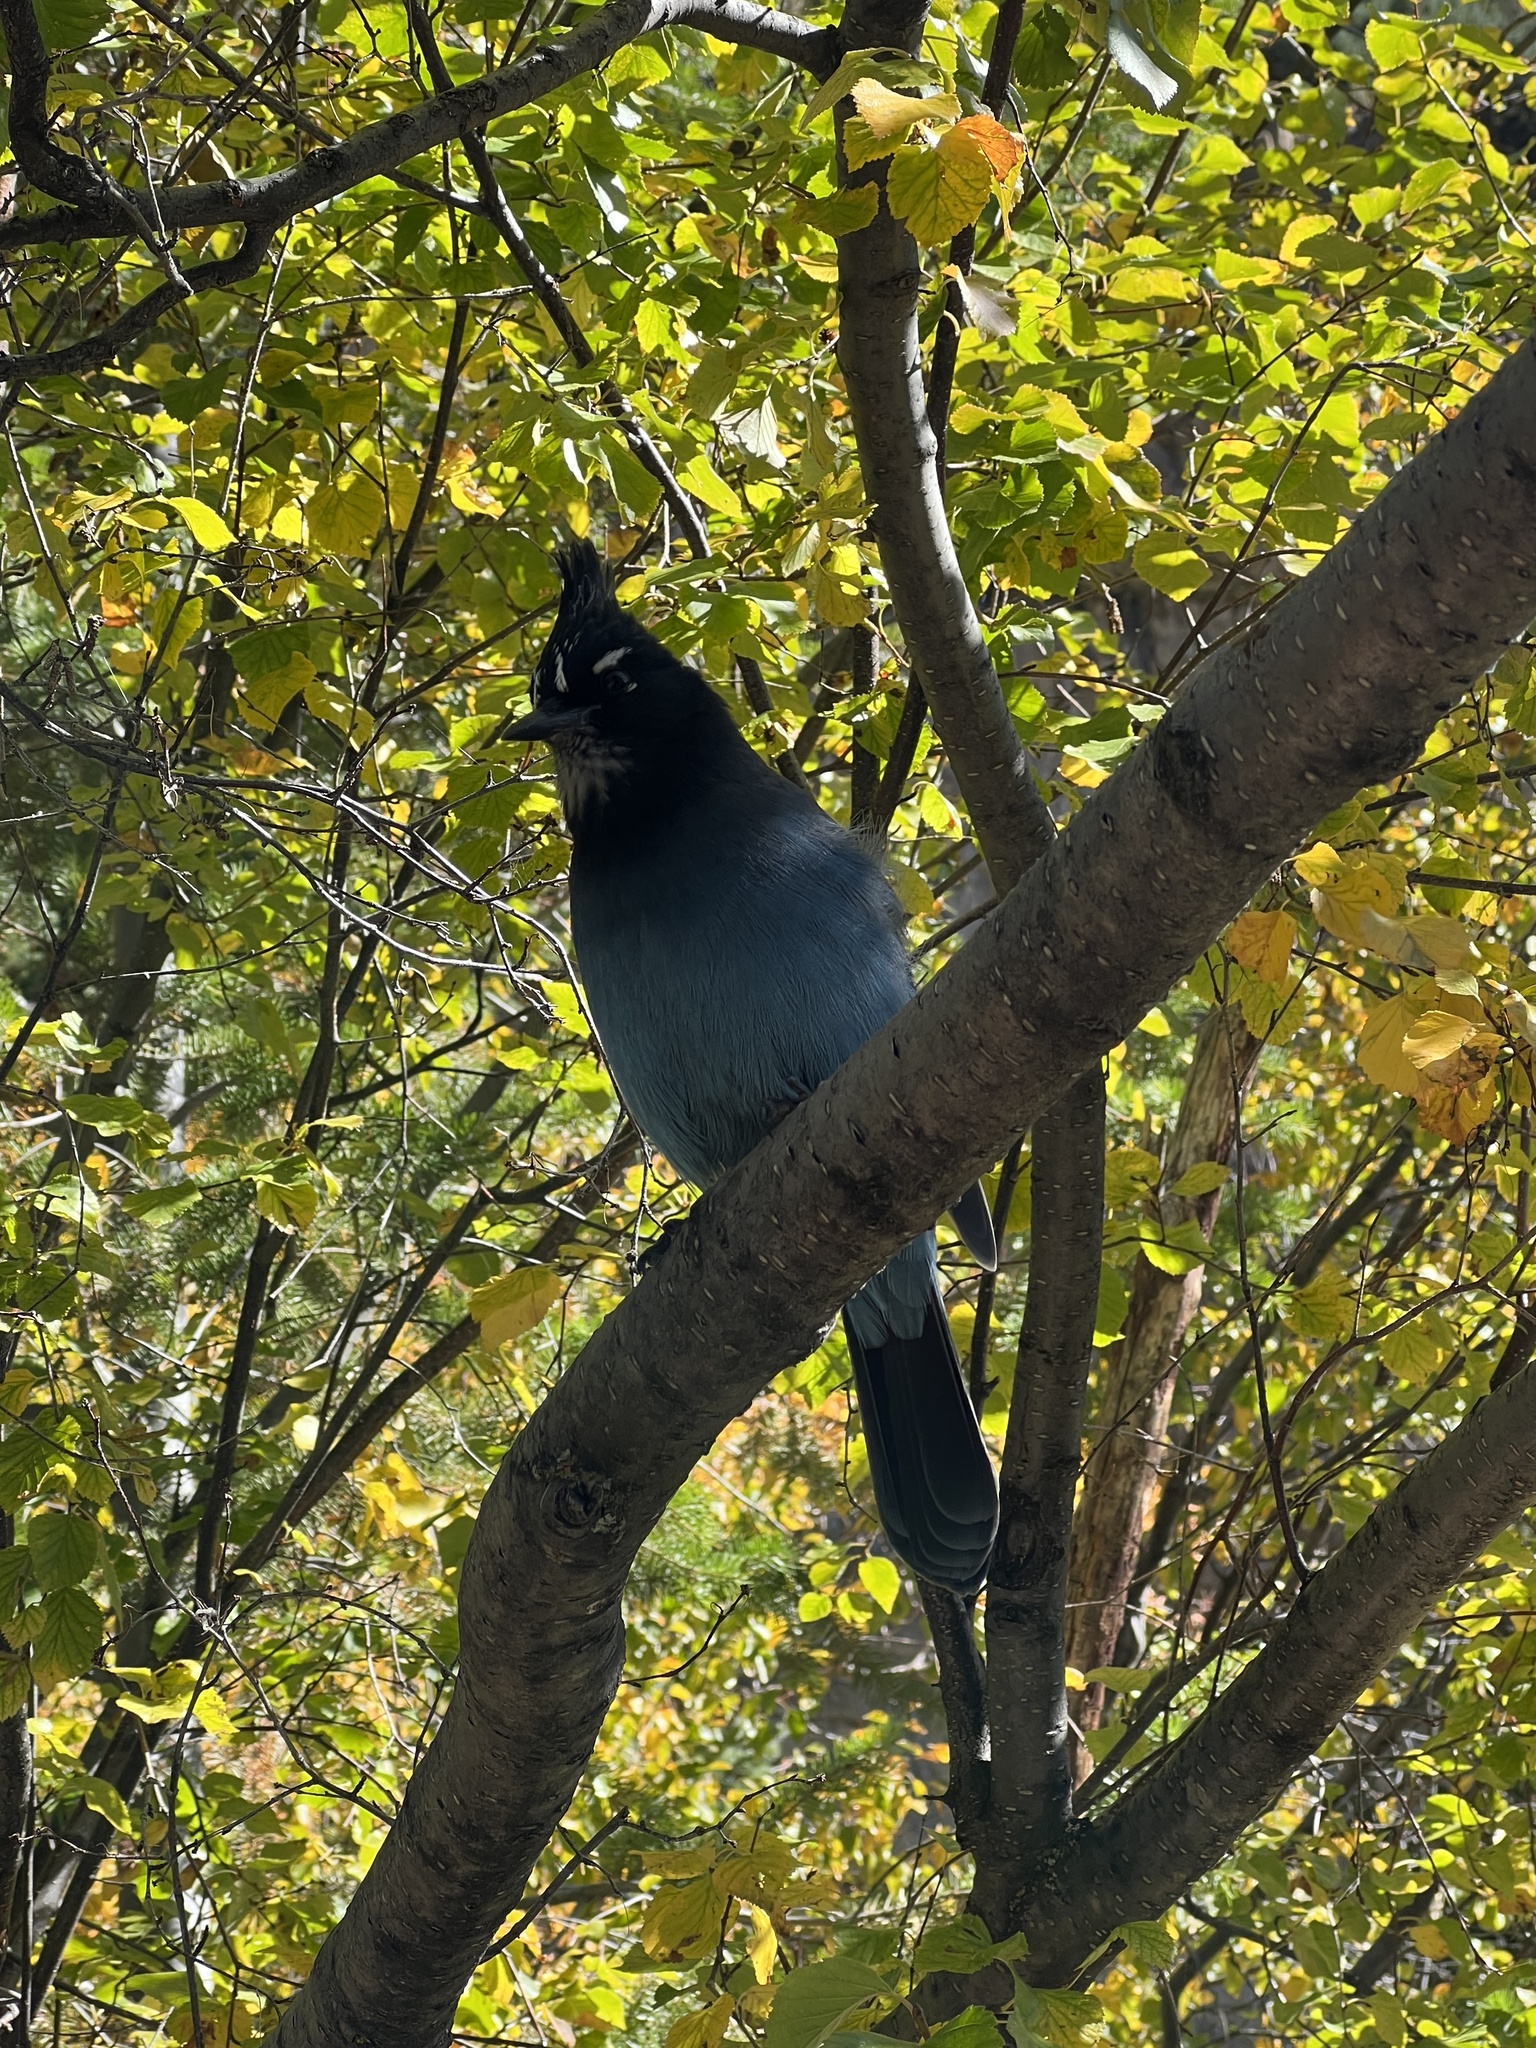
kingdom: Animalia
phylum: Chordata
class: Aves
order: Passeriformes
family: Corvidae
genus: Cyanocitta
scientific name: Cyanocitta stelleri
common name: Steller's jay
